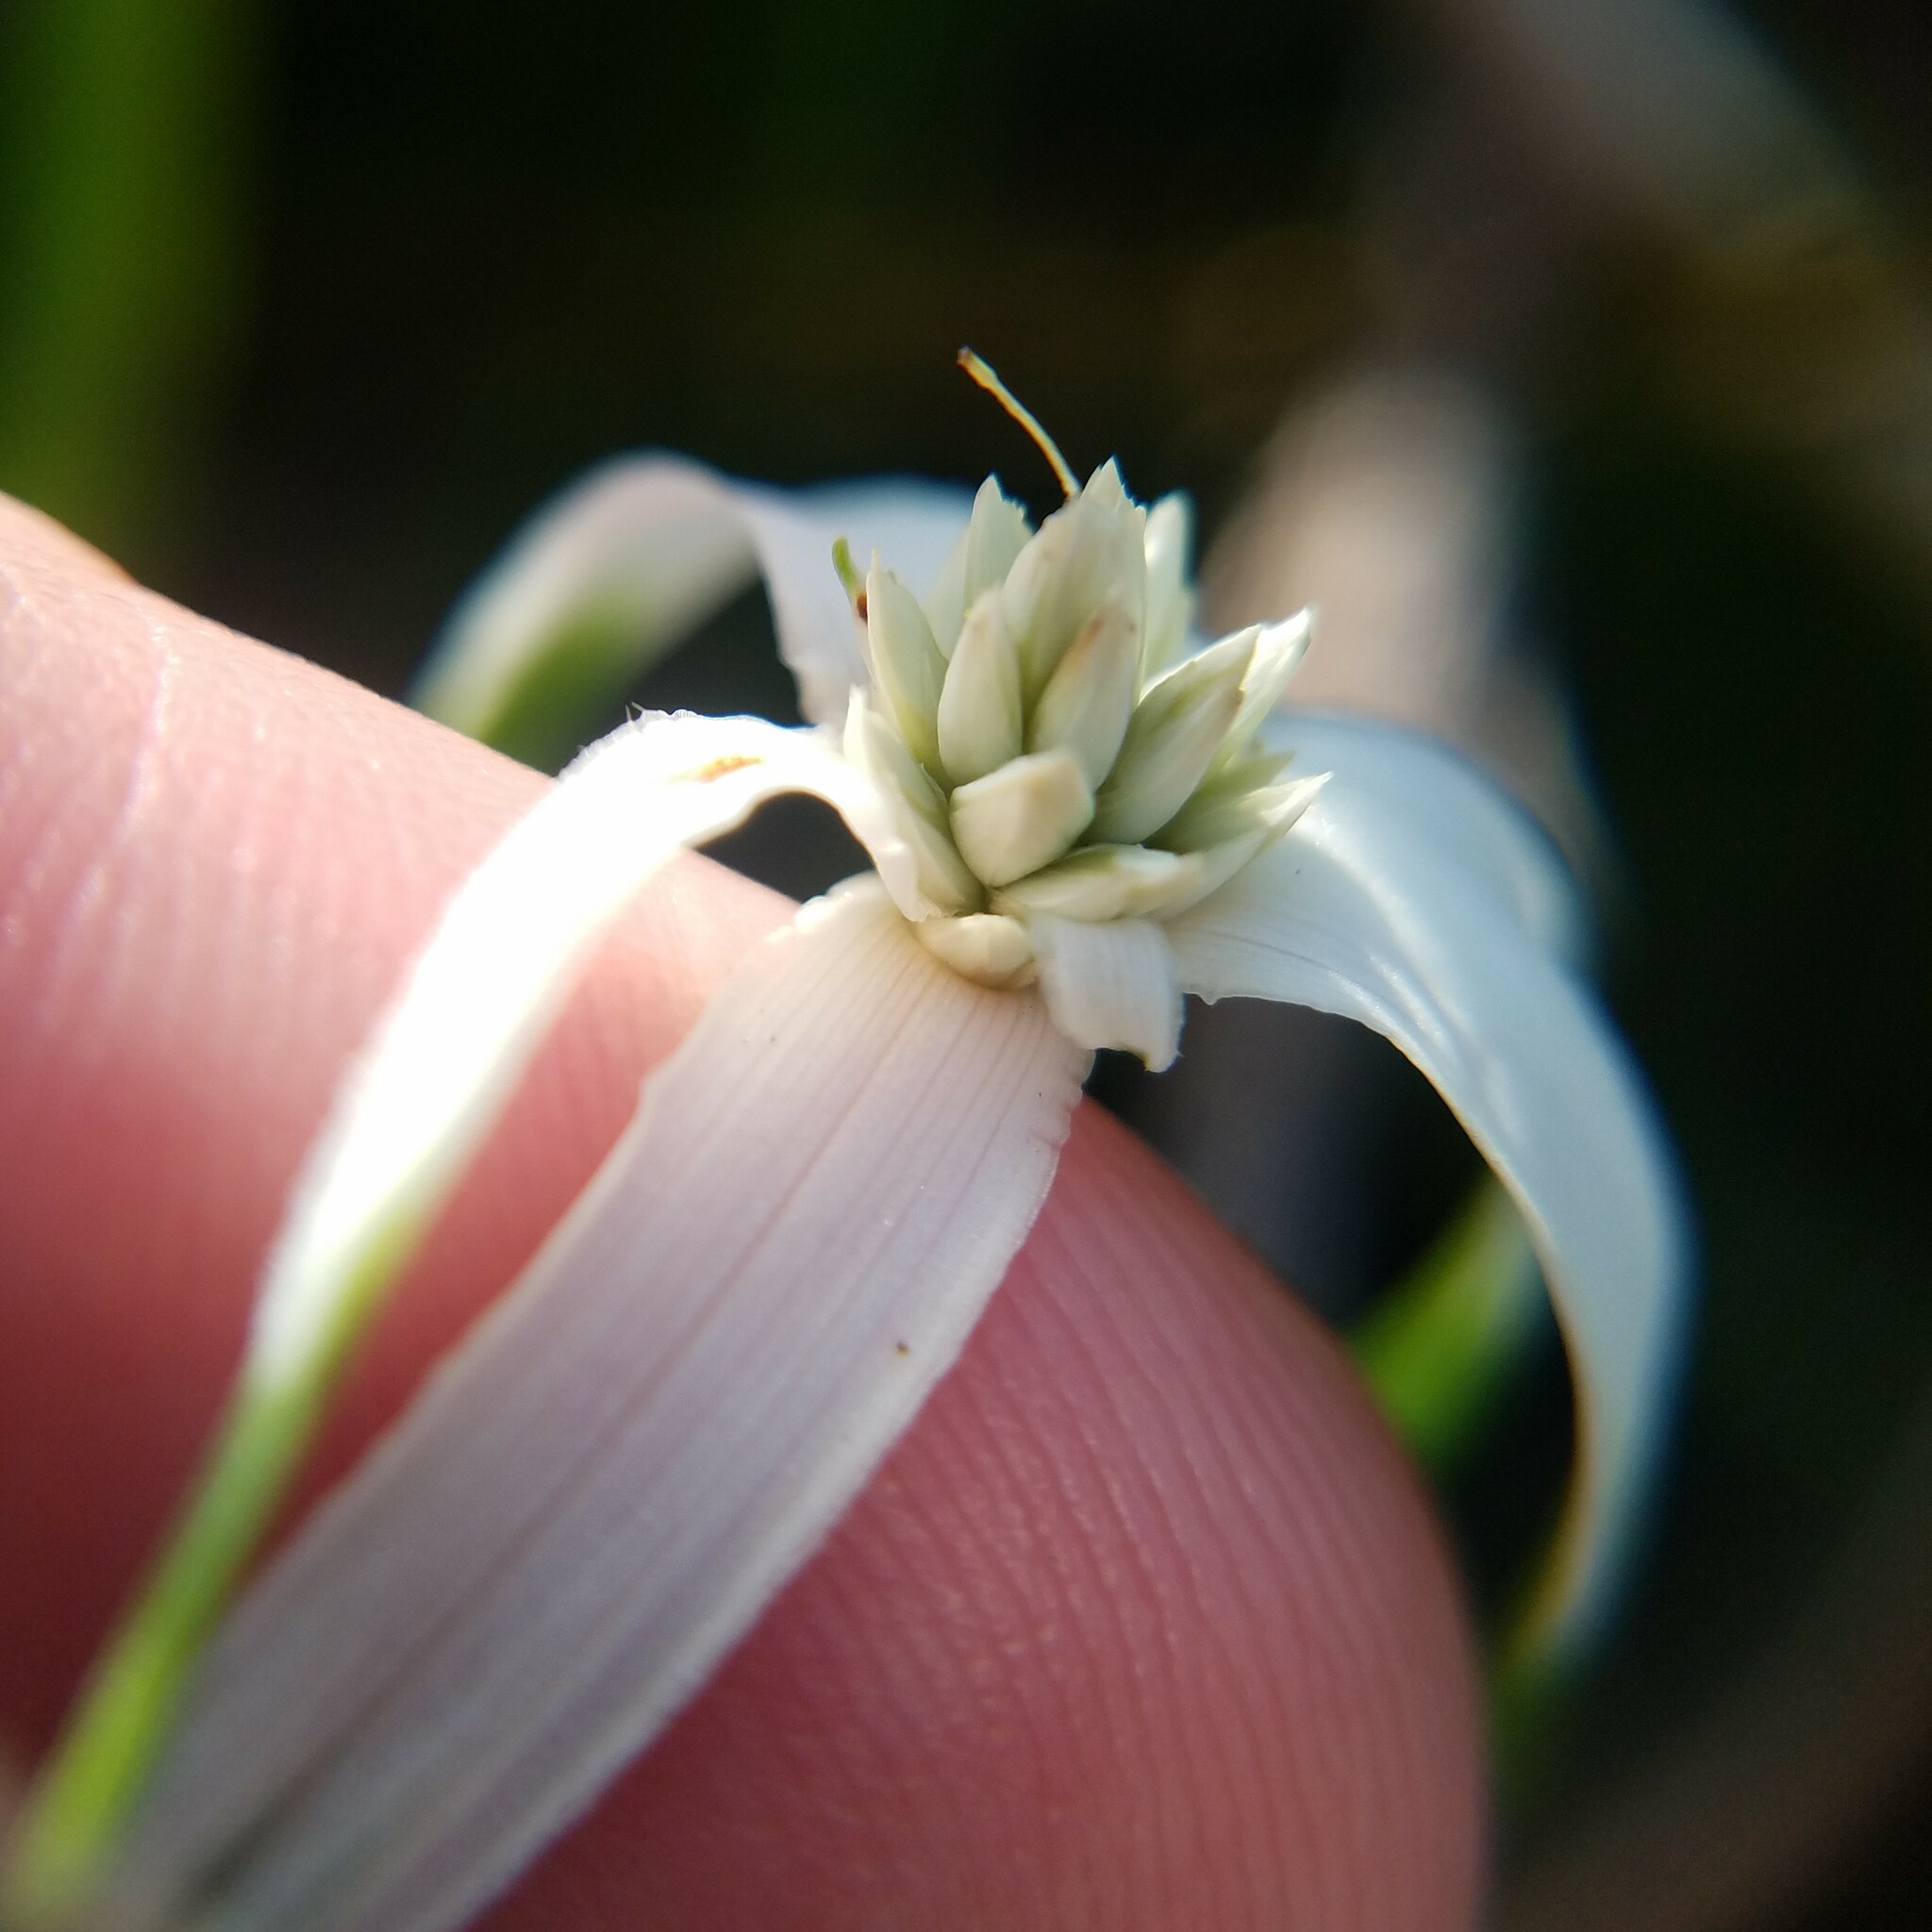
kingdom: Plantae
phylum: Tracheophyta
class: Liliopsida
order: Poales
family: Cyperaceae
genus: Rhynchospora
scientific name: Rhynchospora colorata
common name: Star sedge
